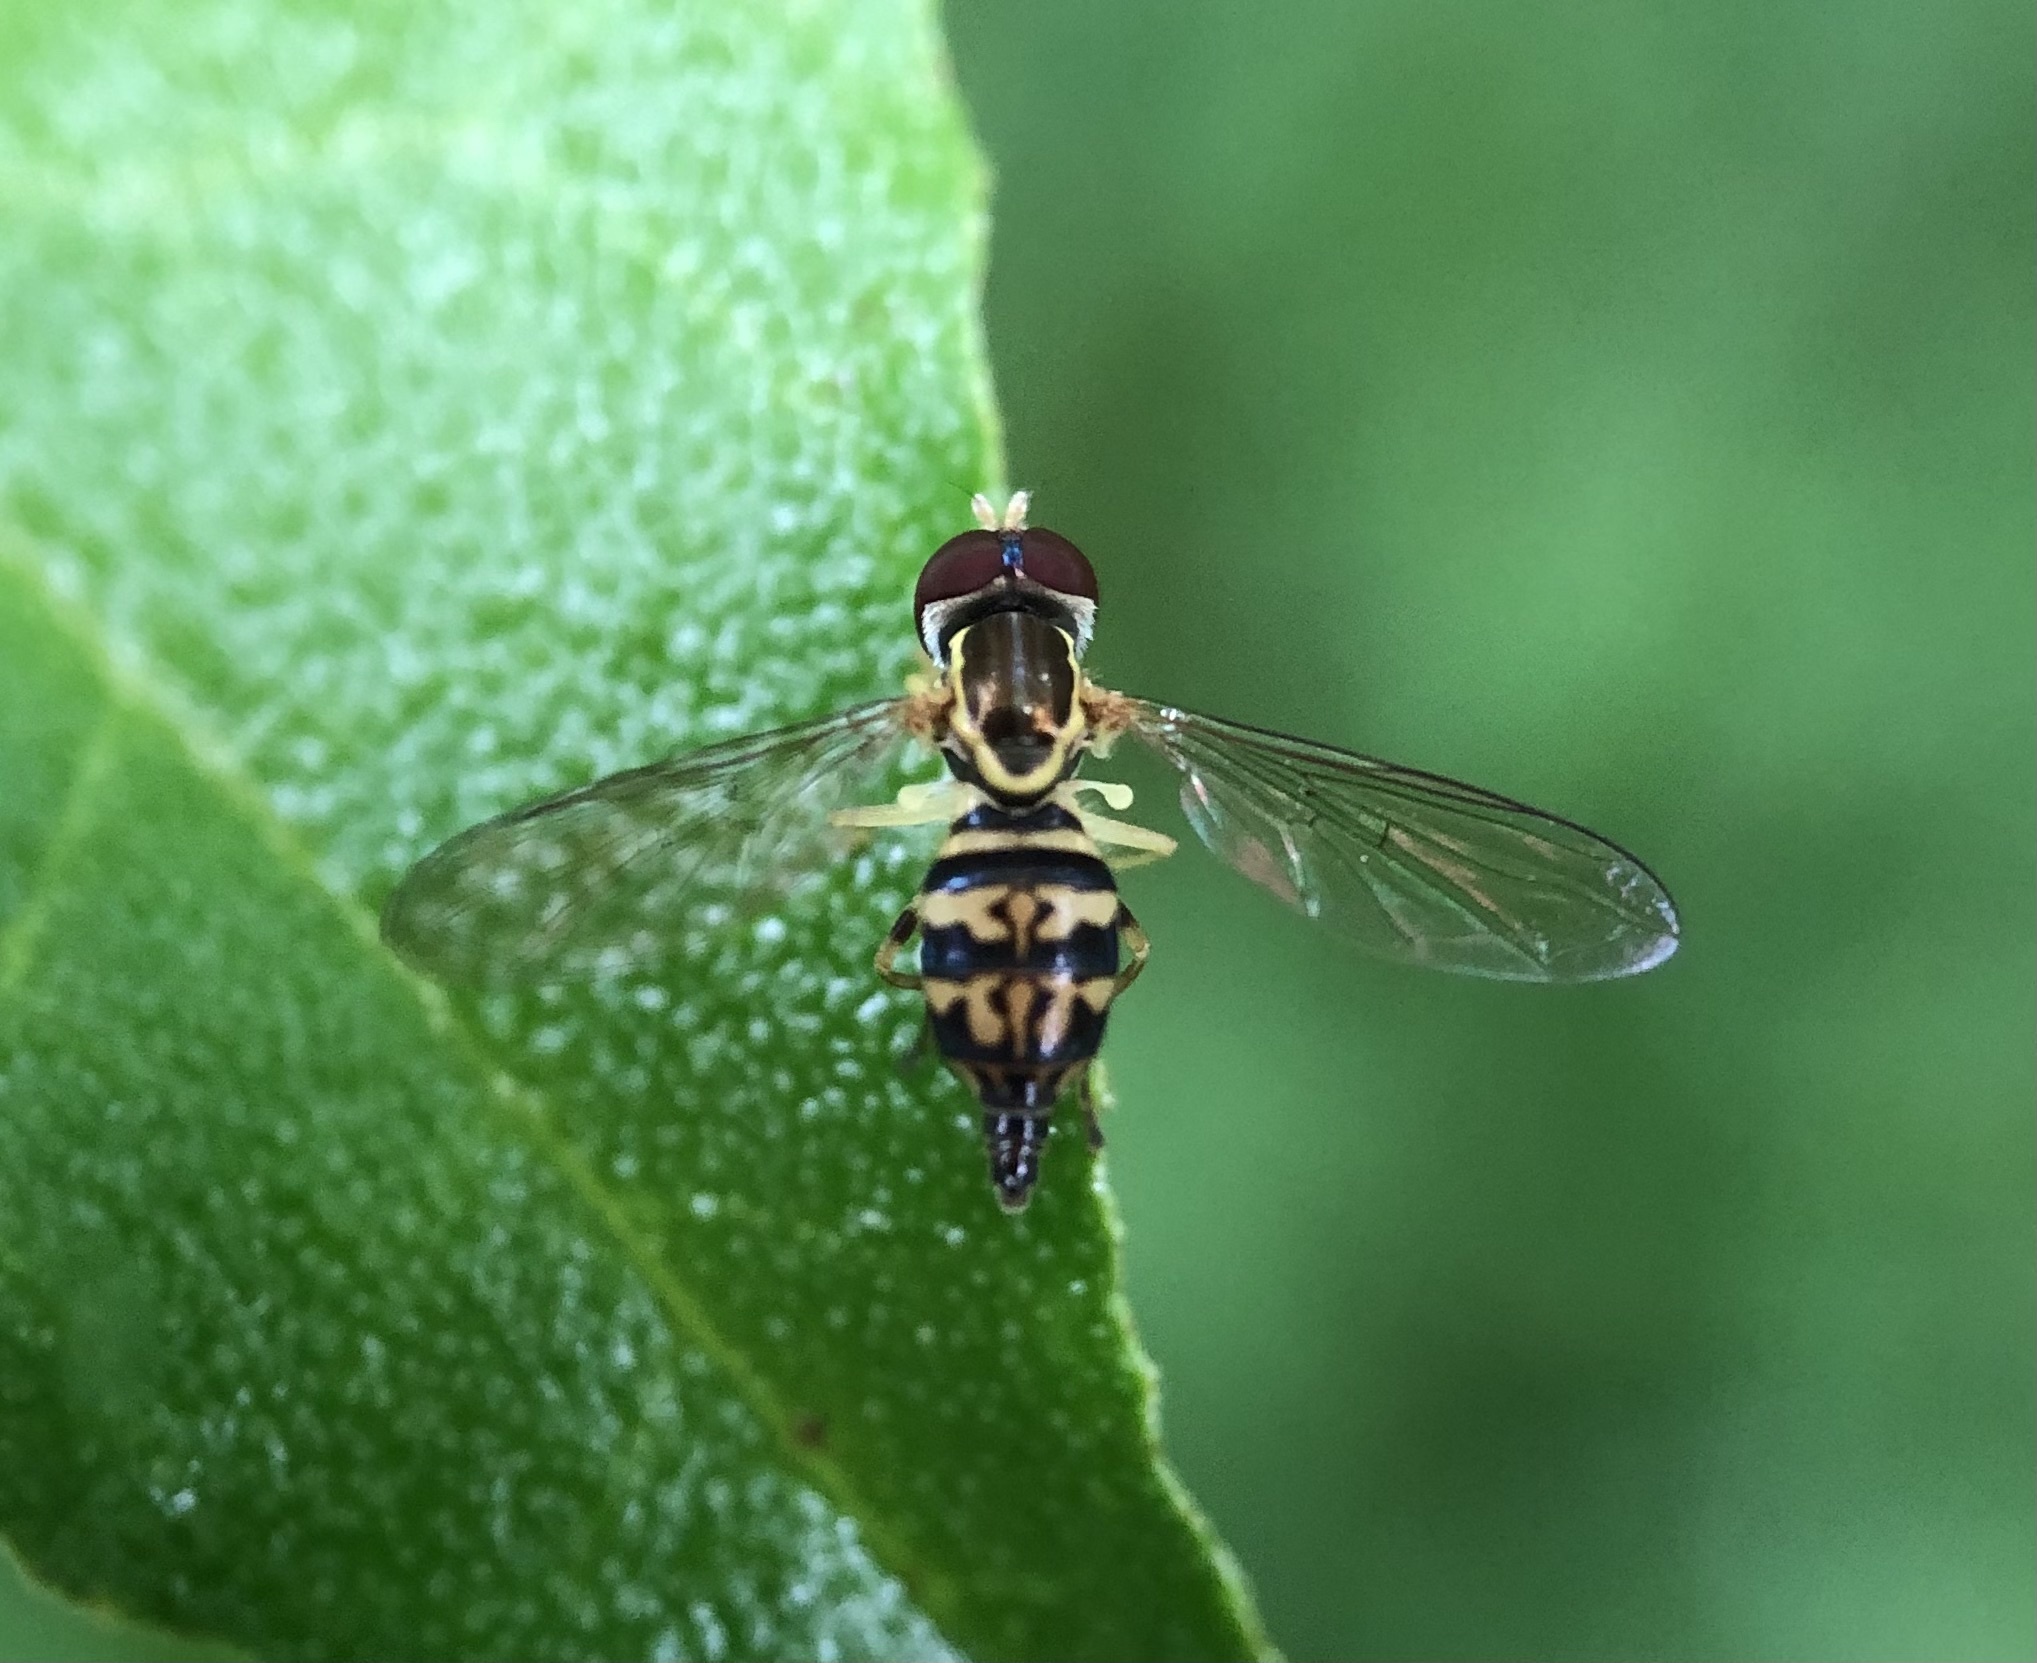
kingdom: Animalia
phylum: Arthropoda
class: Insecta
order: Diptera
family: Syrphidae
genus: Toxomerus
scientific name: Toxomerus geminatus
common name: Eastern calligrapher
